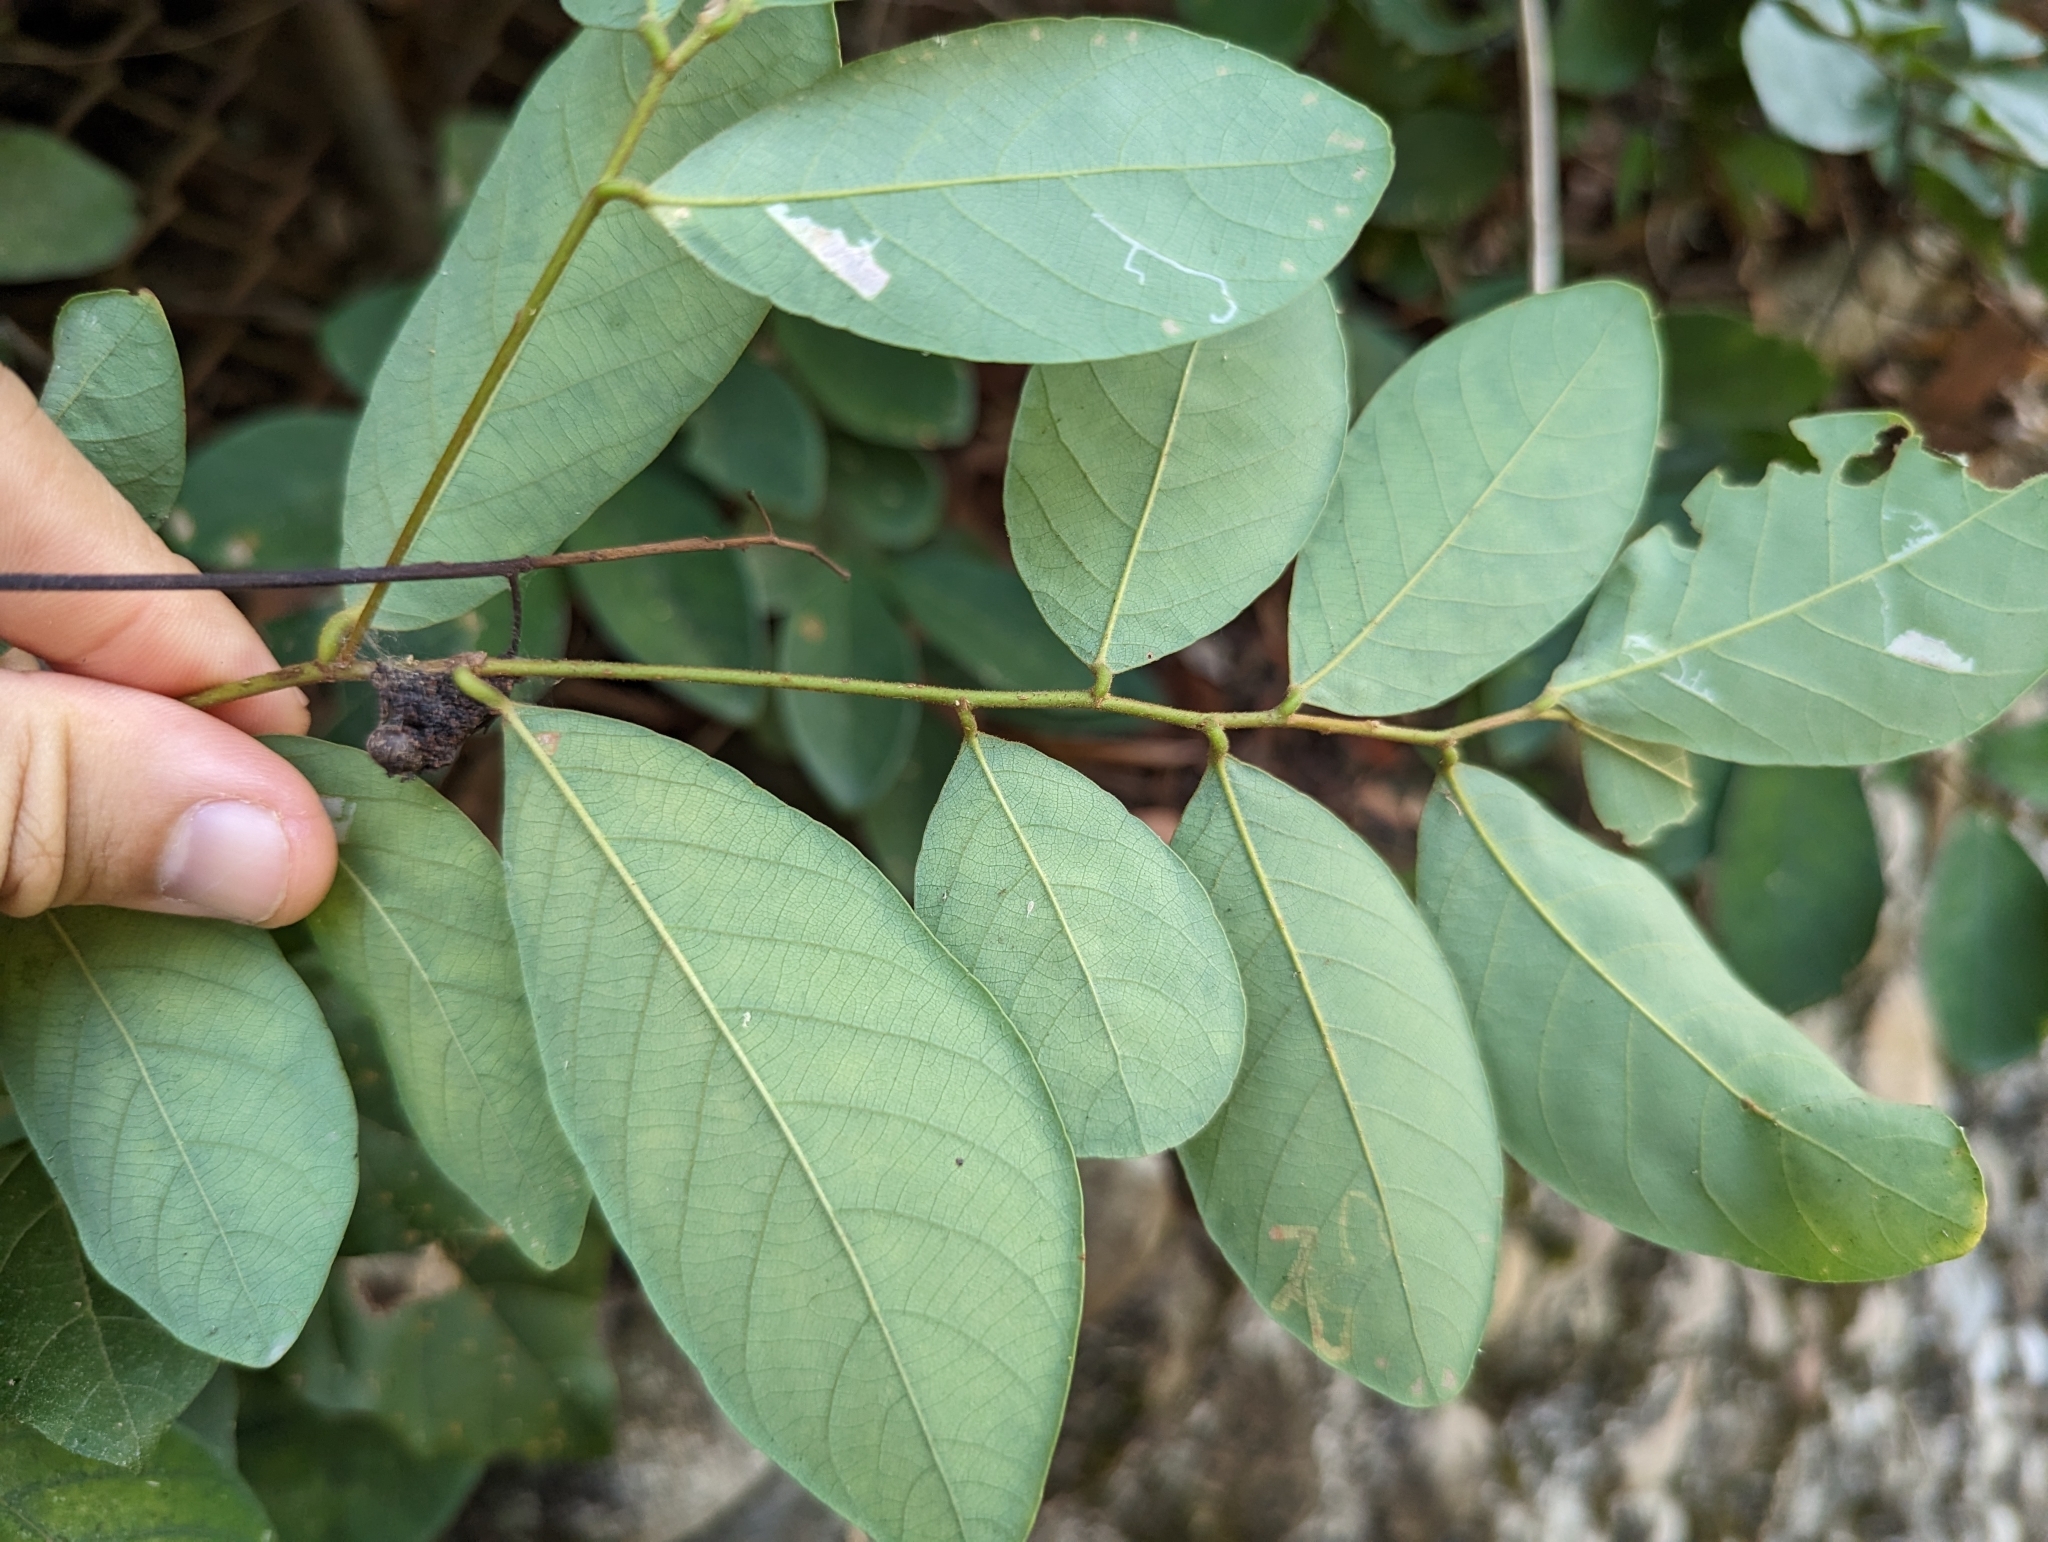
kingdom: Plantae
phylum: Tracheophyta
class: Magnoliopsida
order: Malpighiales
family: Phyllanthaceae
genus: Bridelia
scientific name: Bridelia tomentosa
